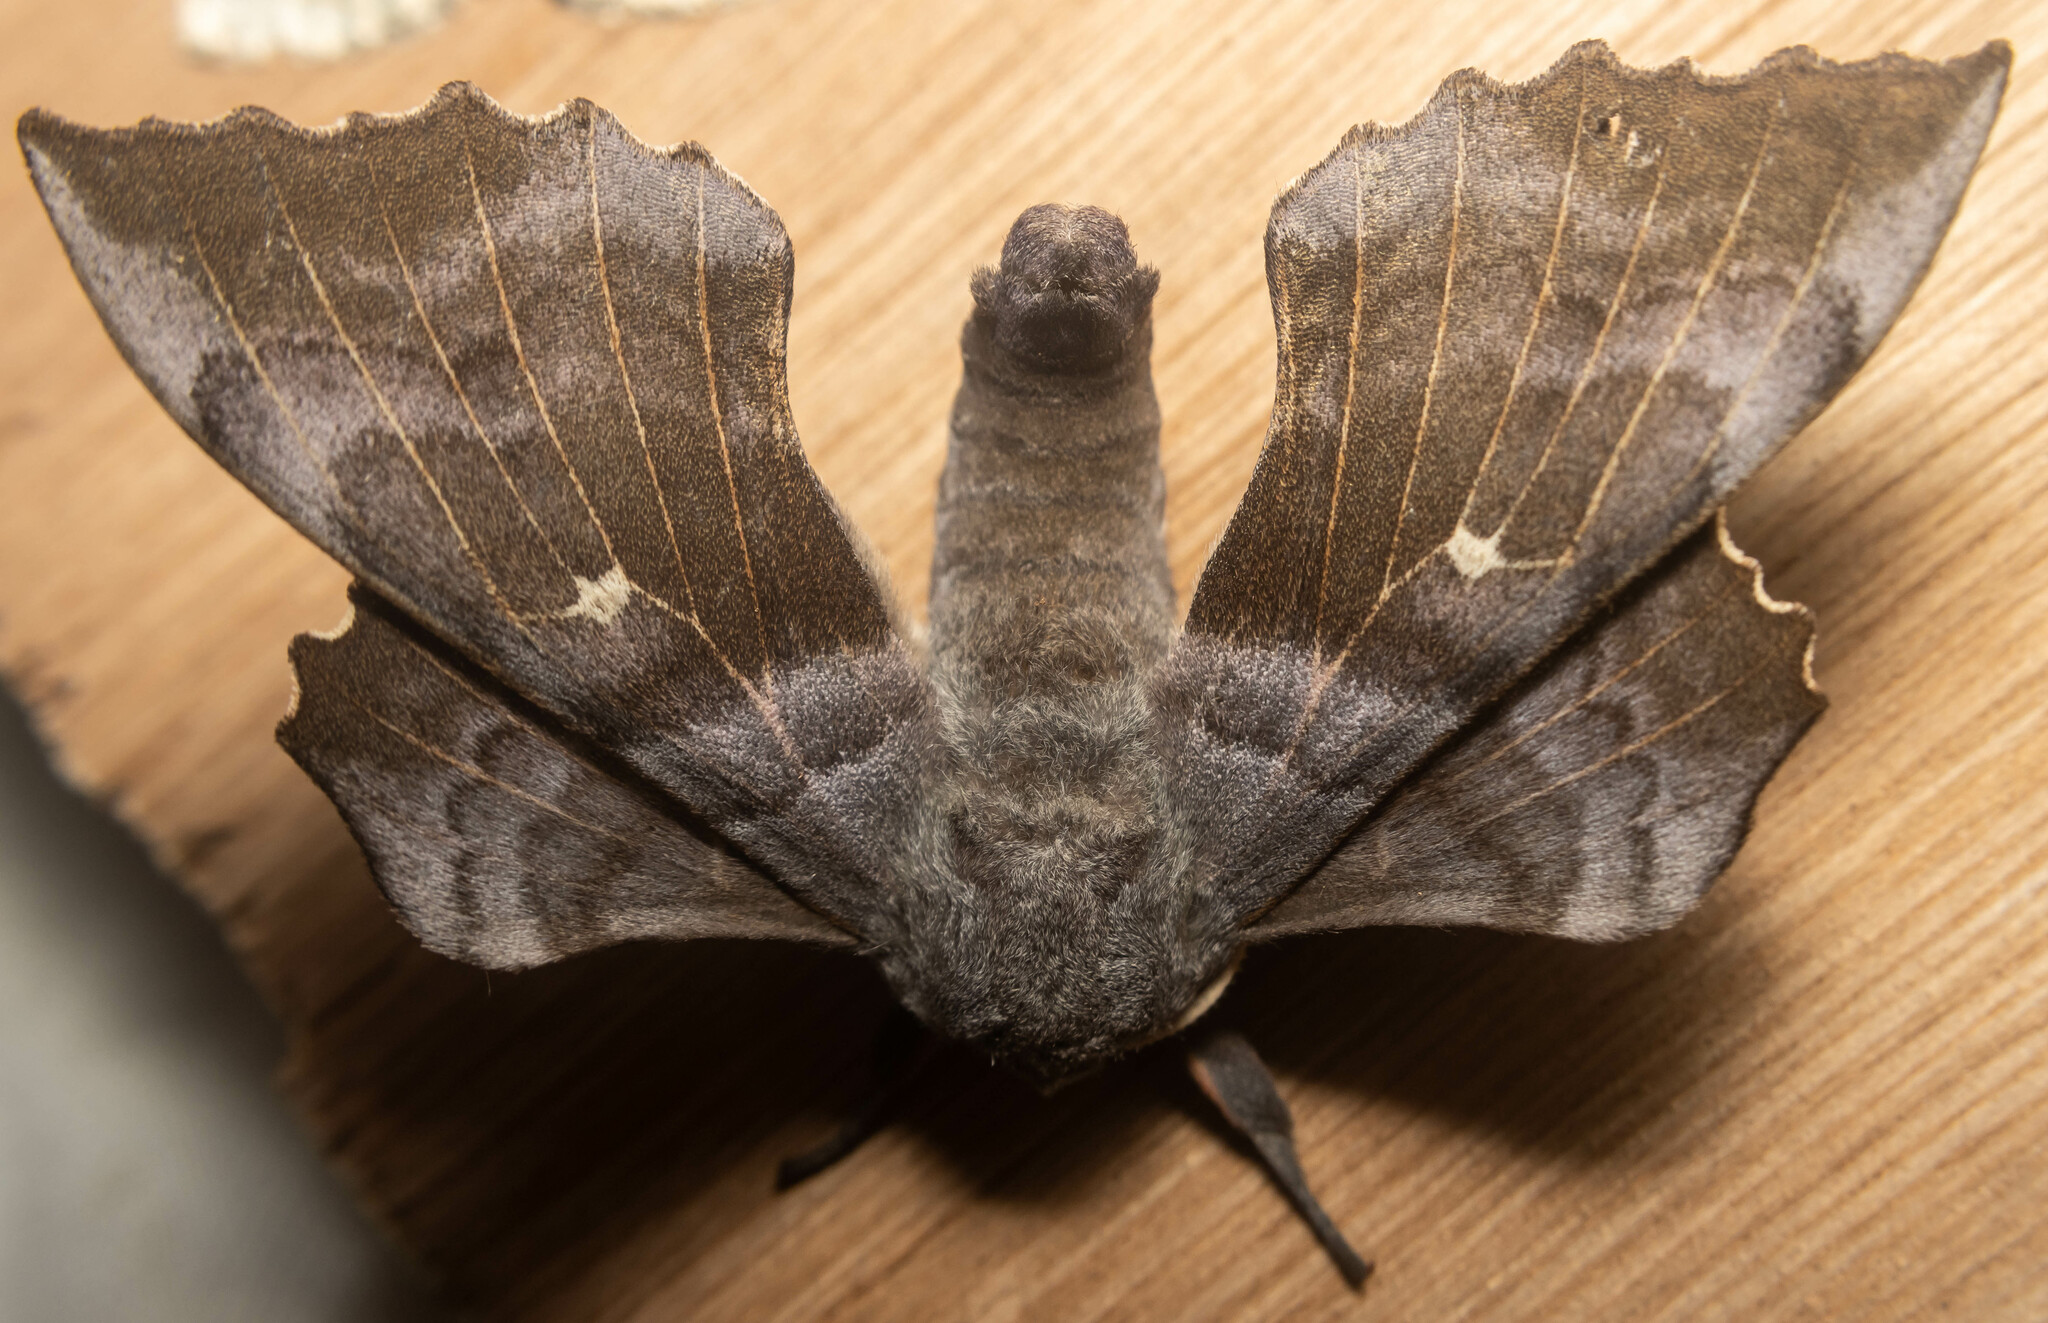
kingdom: Animalia
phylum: Arthropoda
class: Insecta
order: Lepidoptera
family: Sphingidae
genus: Laothoe
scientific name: Laothoe populi
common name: Poplar hawk-moth
